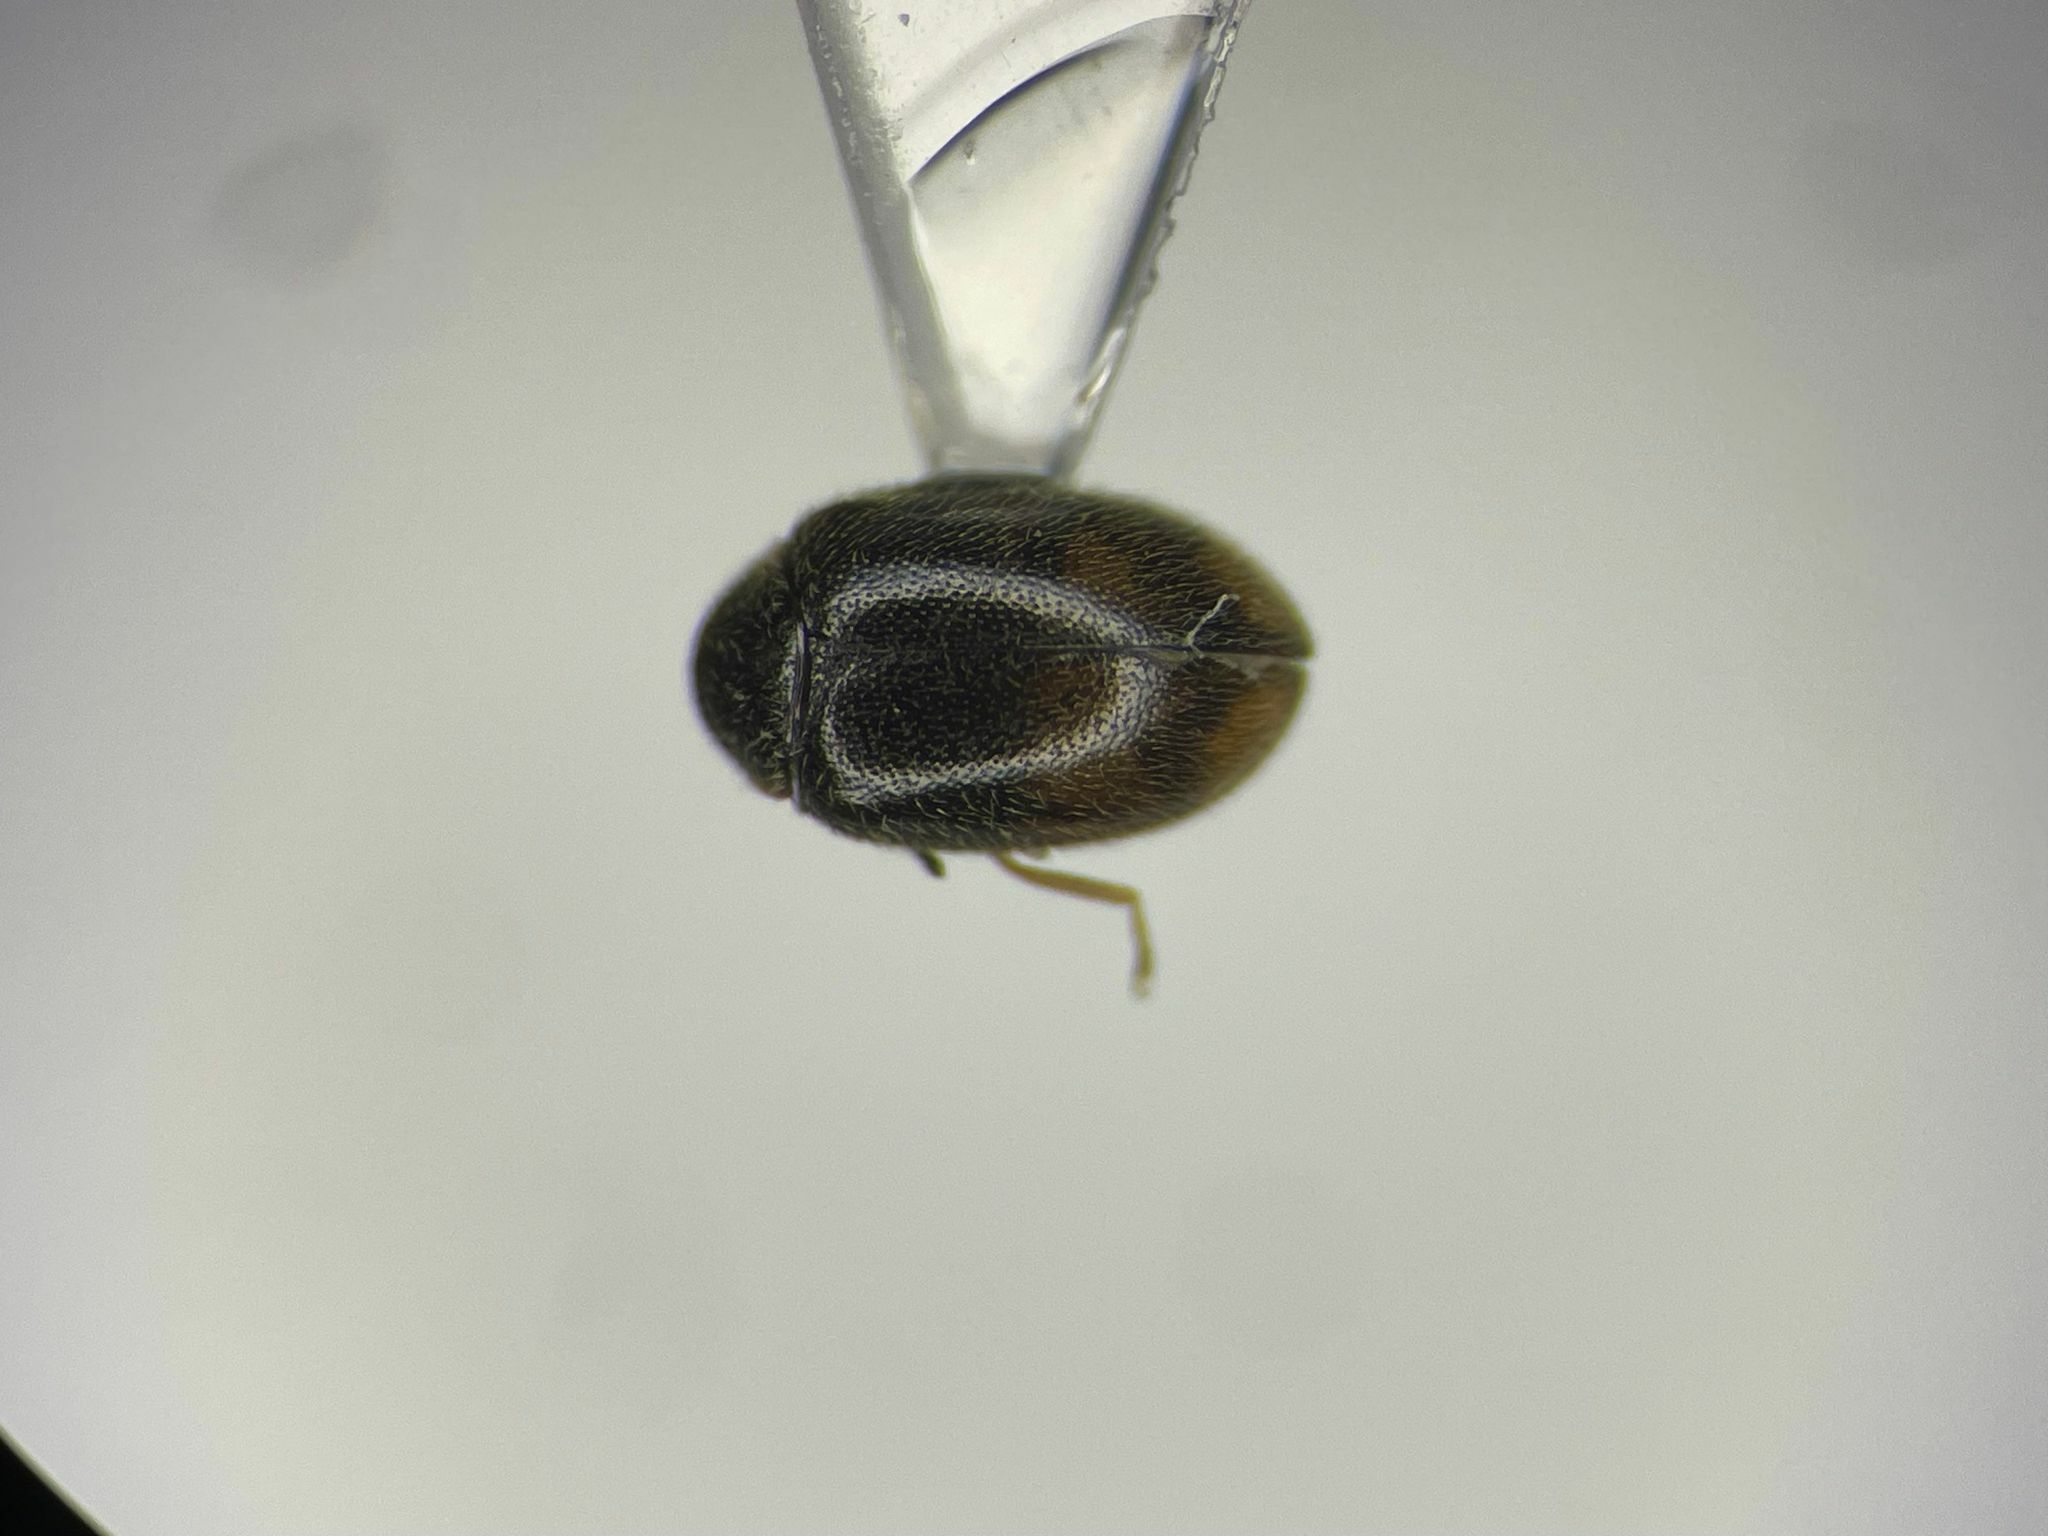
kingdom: Animalia
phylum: Arthropoda
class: Insecta
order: Coleoptera
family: Scirtidae
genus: Contacyphon
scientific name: Contacyphon neopadi
